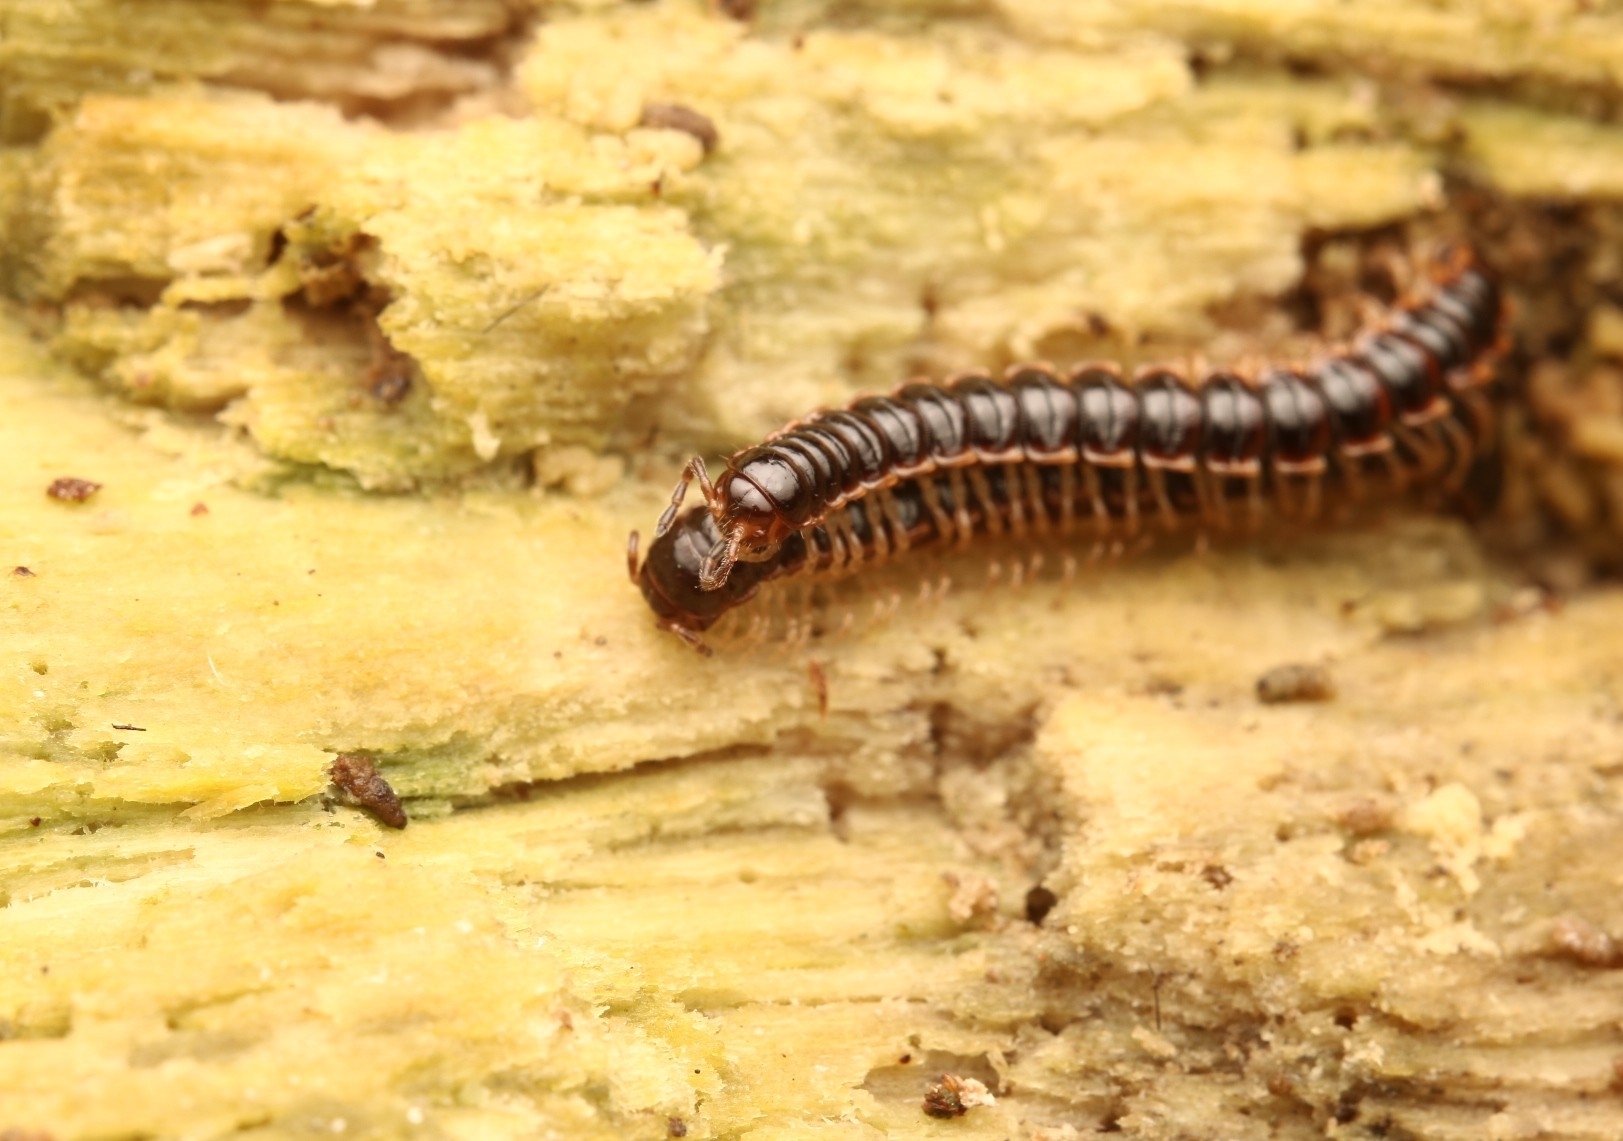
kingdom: Animalia
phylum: Arthropoda
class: Diplopoda
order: Polydesmida
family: Paradoxosomatidae
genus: Oxidus
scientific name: Oxidus gracilis
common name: Greenhouse millipede
